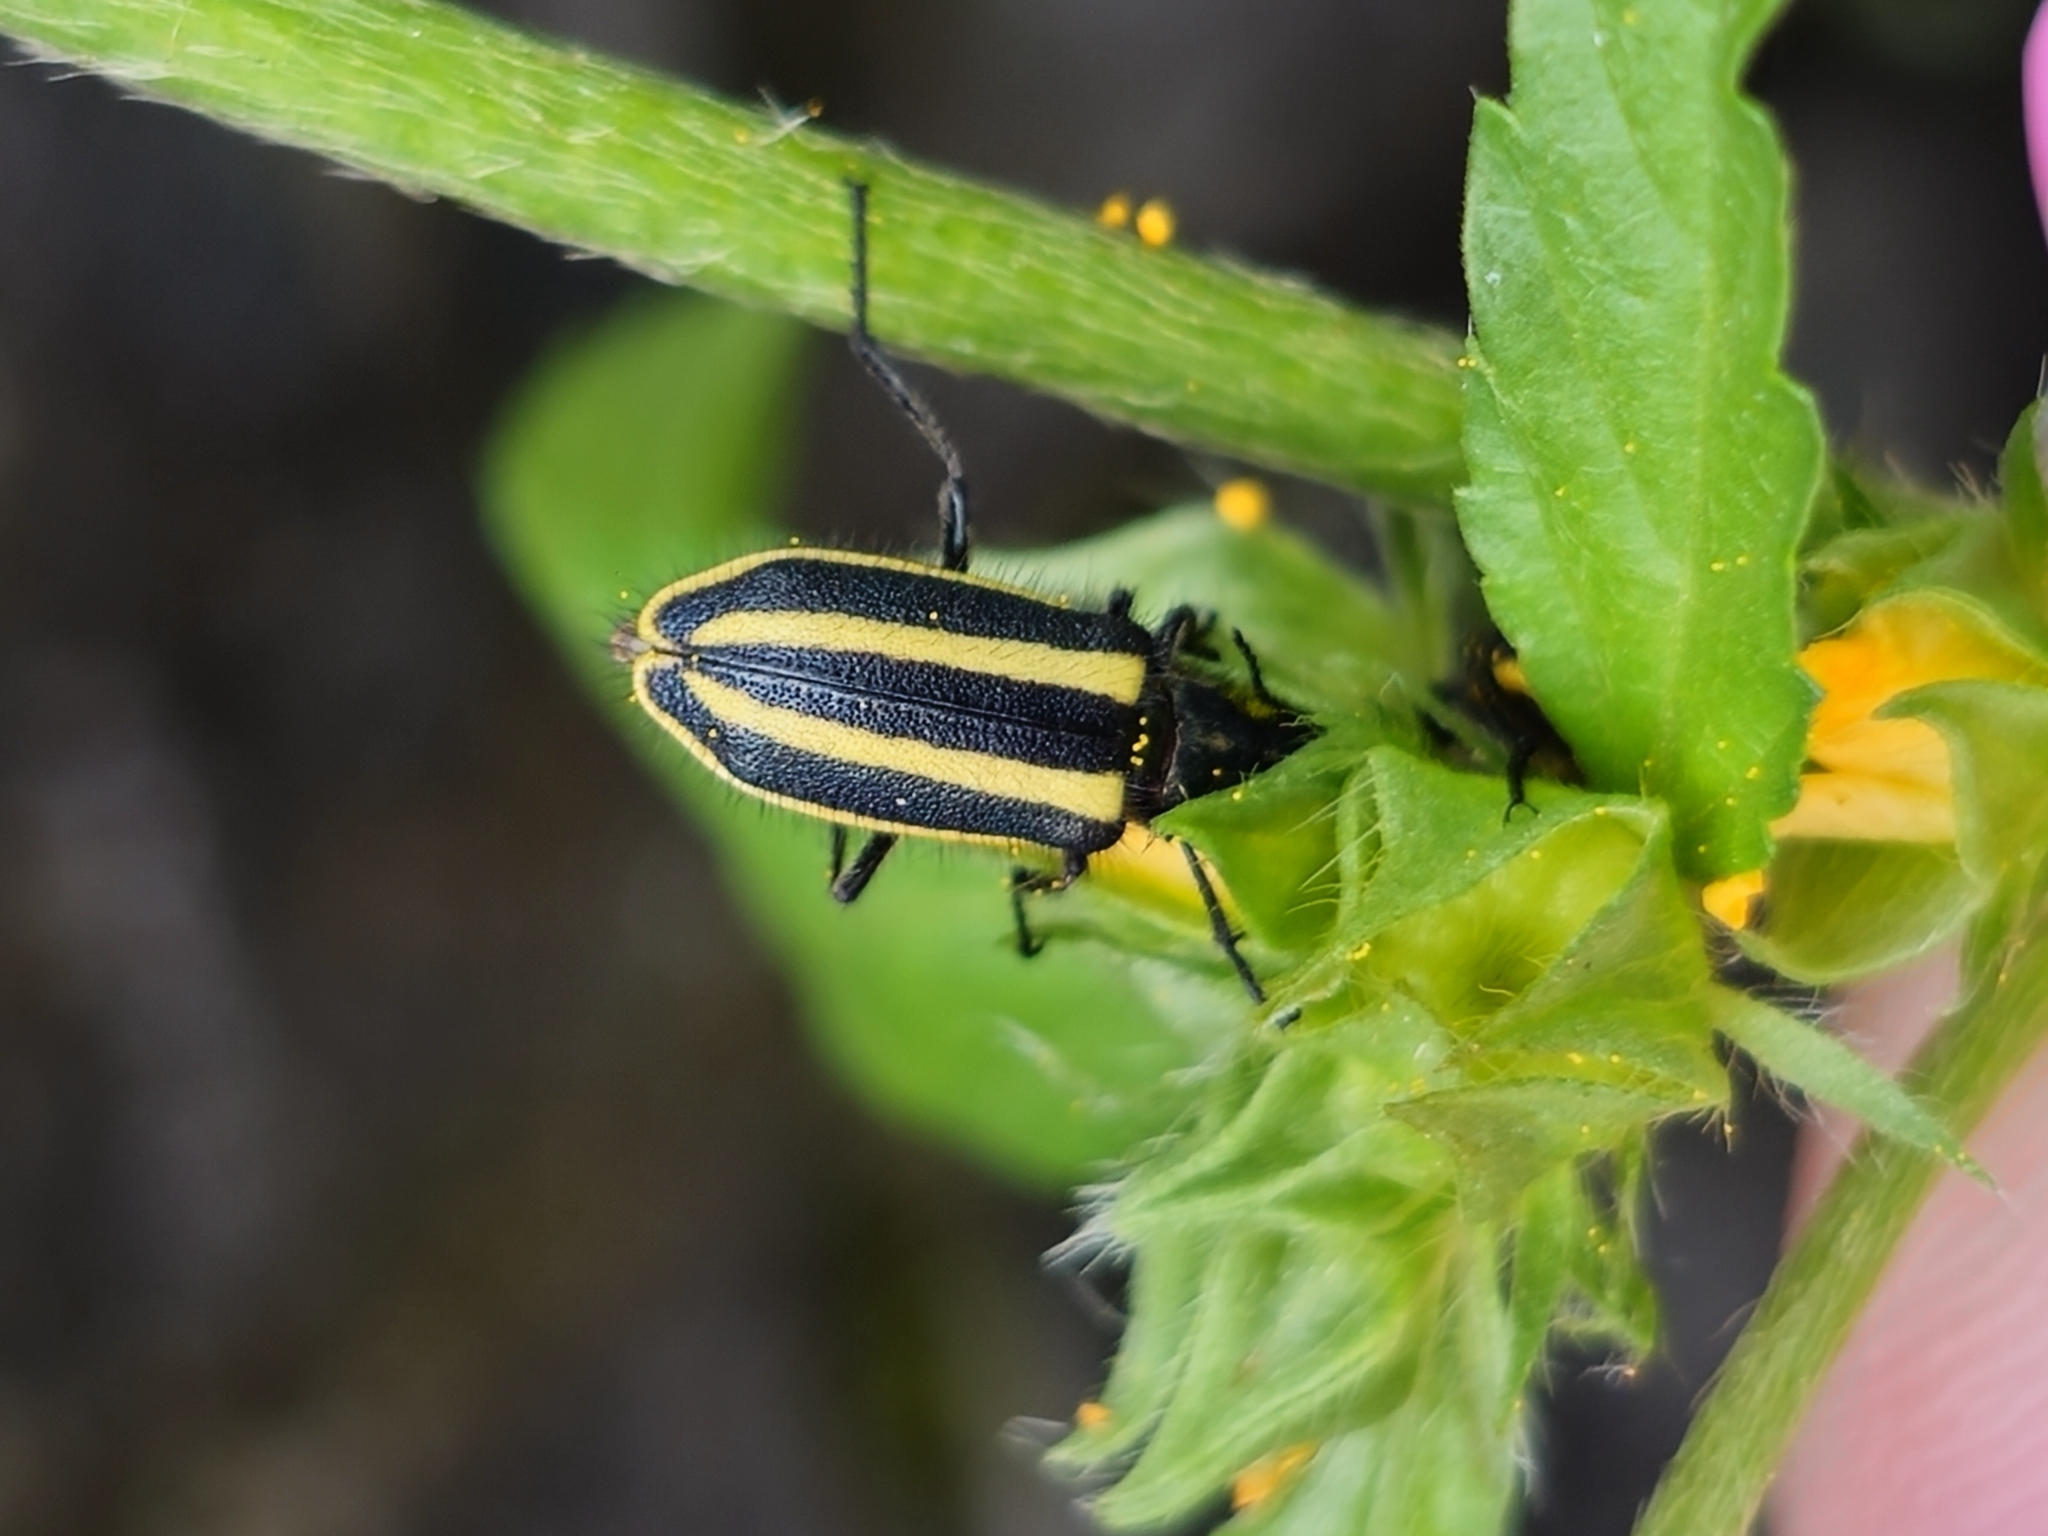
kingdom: Animalia
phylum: Arthropoda
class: Insecta
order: Coleoptera
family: Melyridae
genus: Astylus
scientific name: Astylus vittaticollis
